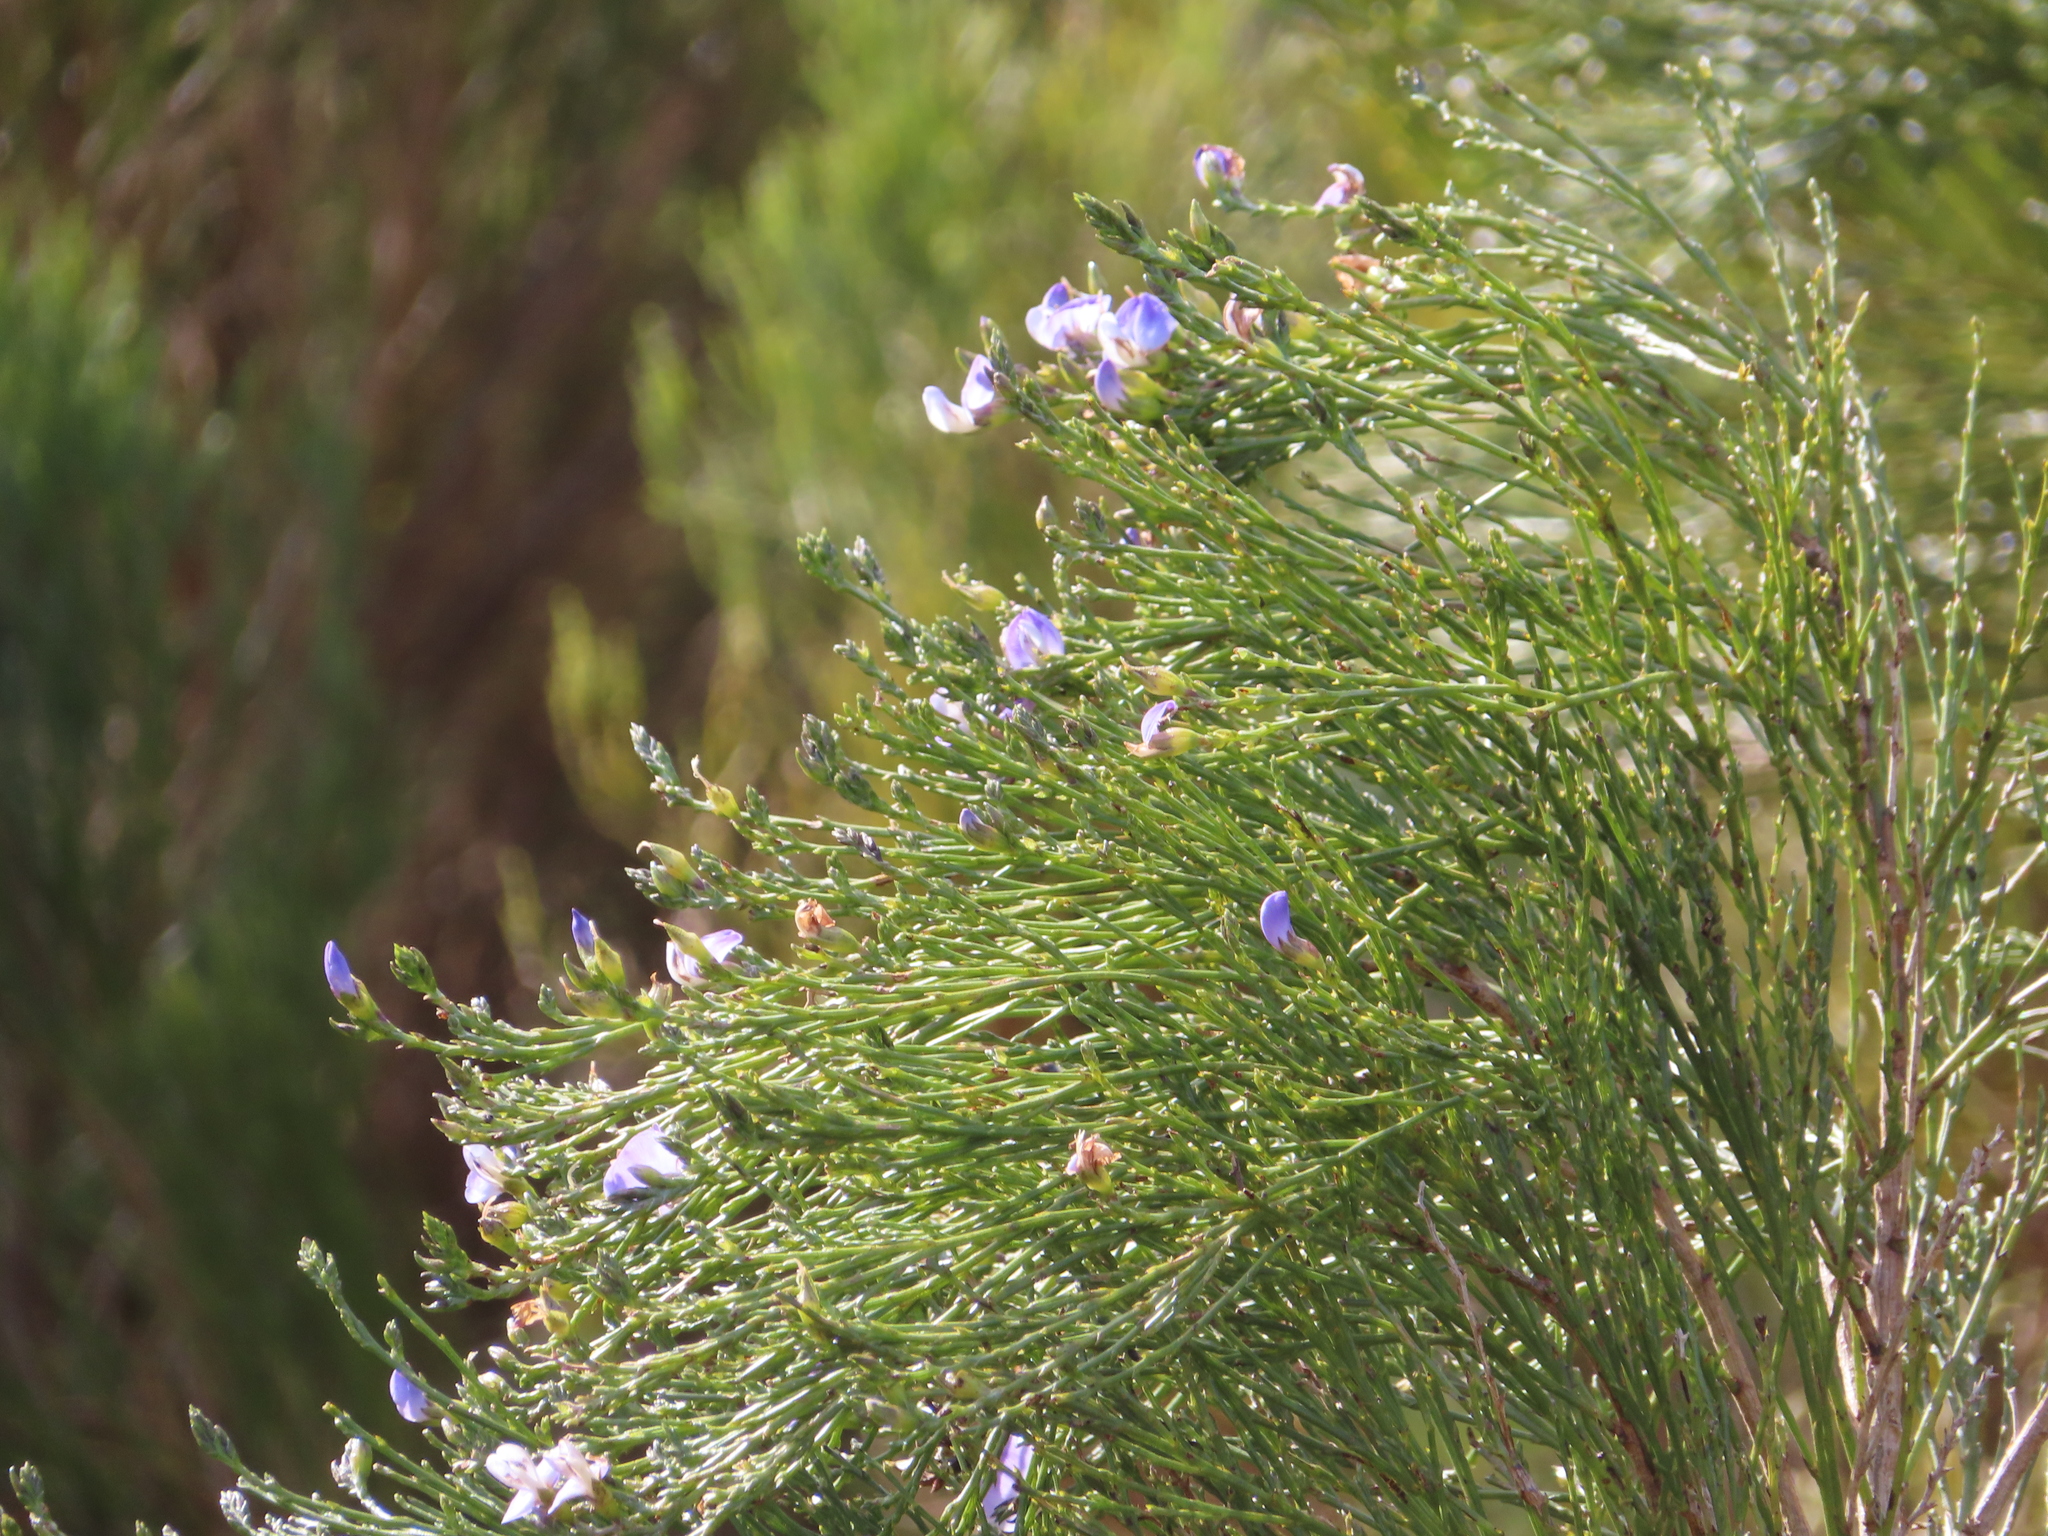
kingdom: Plantae
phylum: Tracheophyta
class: Magnoliopsida
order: Fabales
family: Fabaceae
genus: Psoralea
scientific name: Psoralea aphylla
